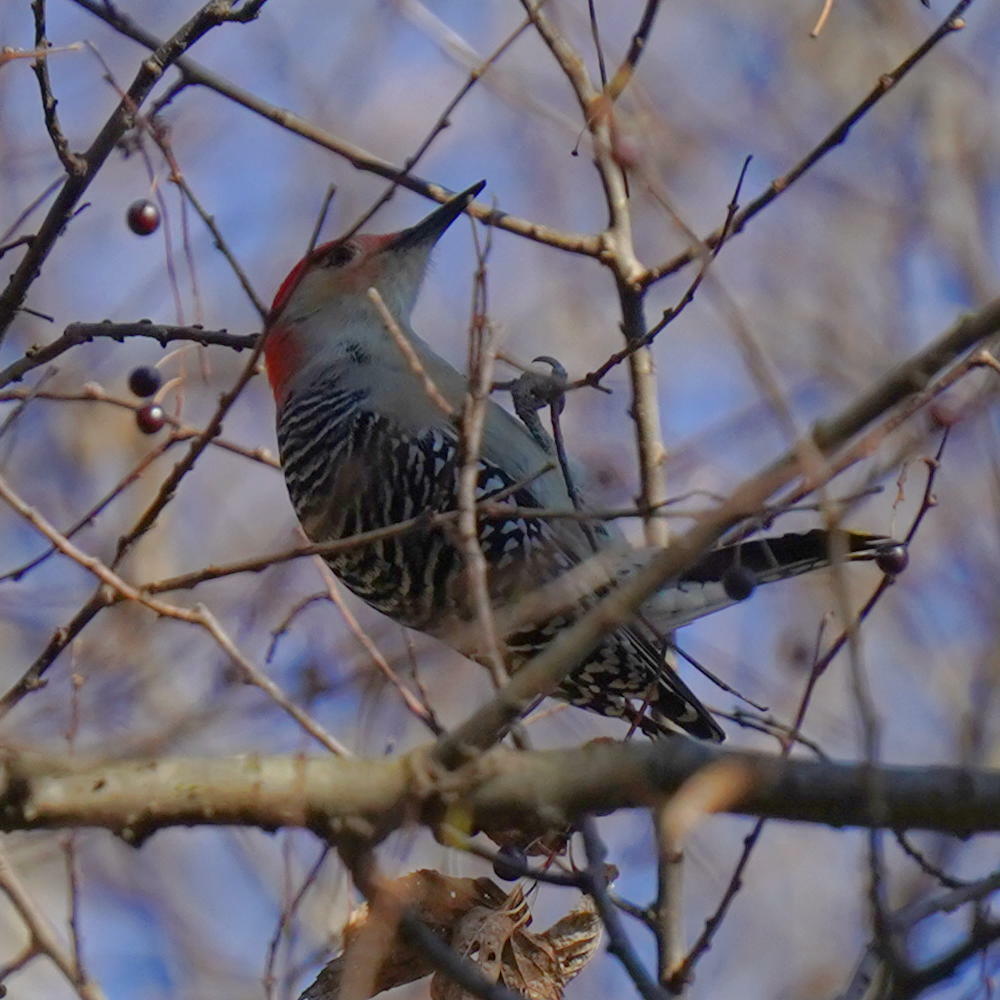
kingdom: Animalia
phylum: Chordata
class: Aves
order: Piciformes
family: Picidae
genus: Melanerpes
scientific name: Melanerpes carolinus
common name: Red-bellied woodpecker
